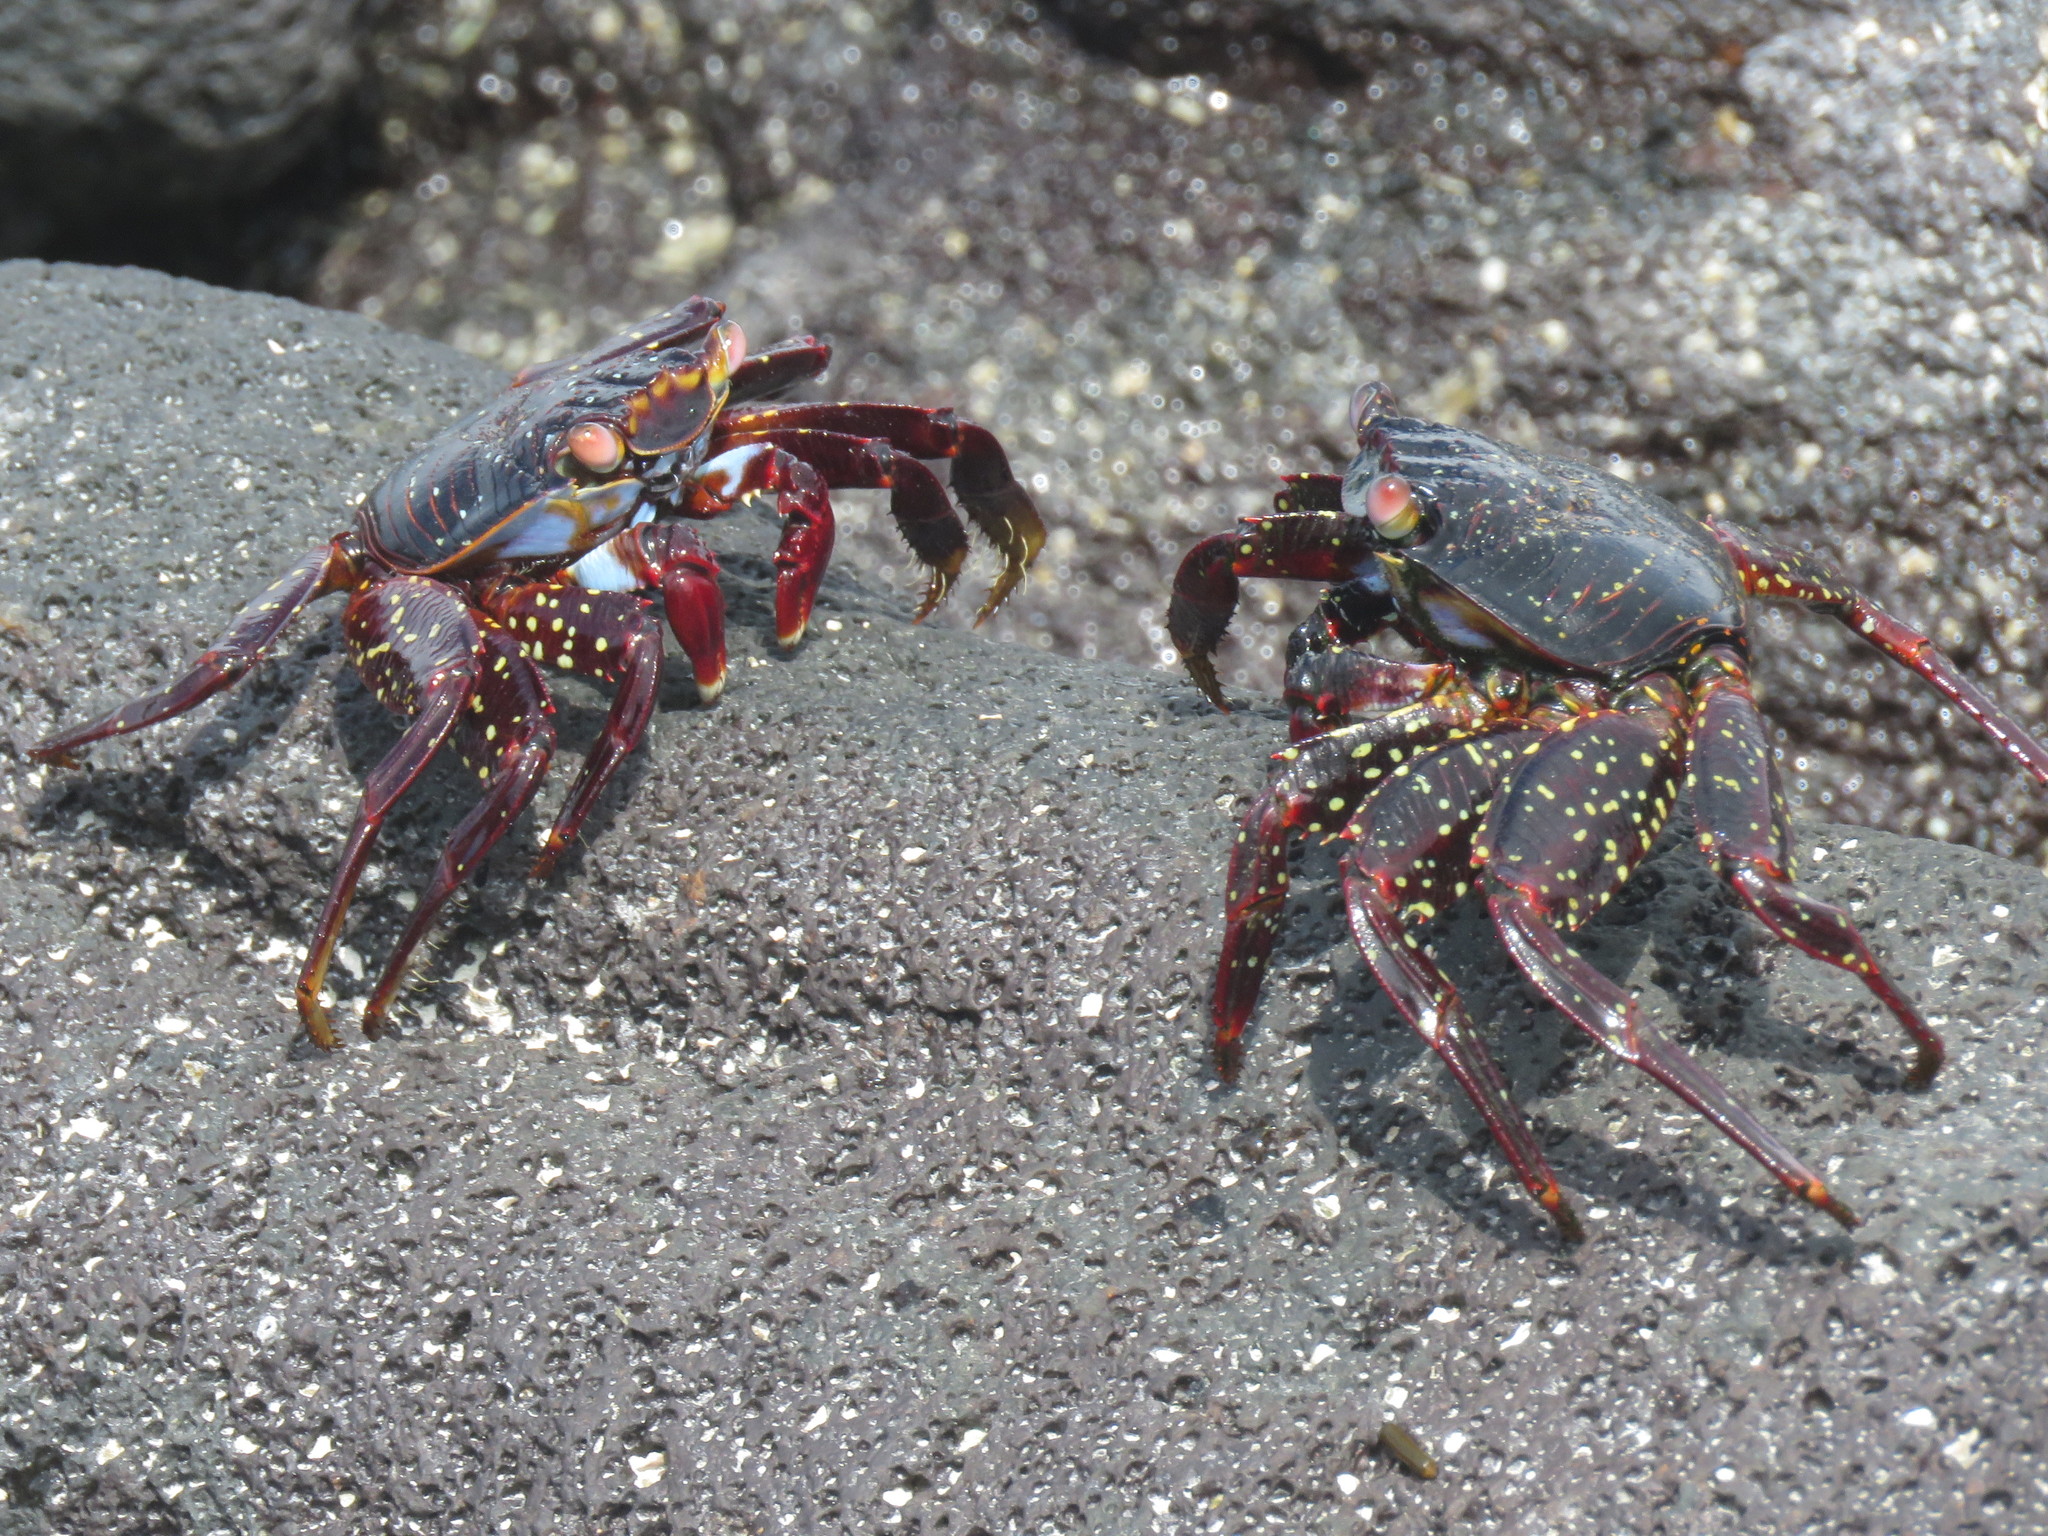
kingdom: Animalia
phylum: Arthropoda
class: Malacostraca
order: Decapoda
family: Grapsidae
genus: Grapsus
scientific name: Grapsus grapsus
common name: Sally lightfoot
